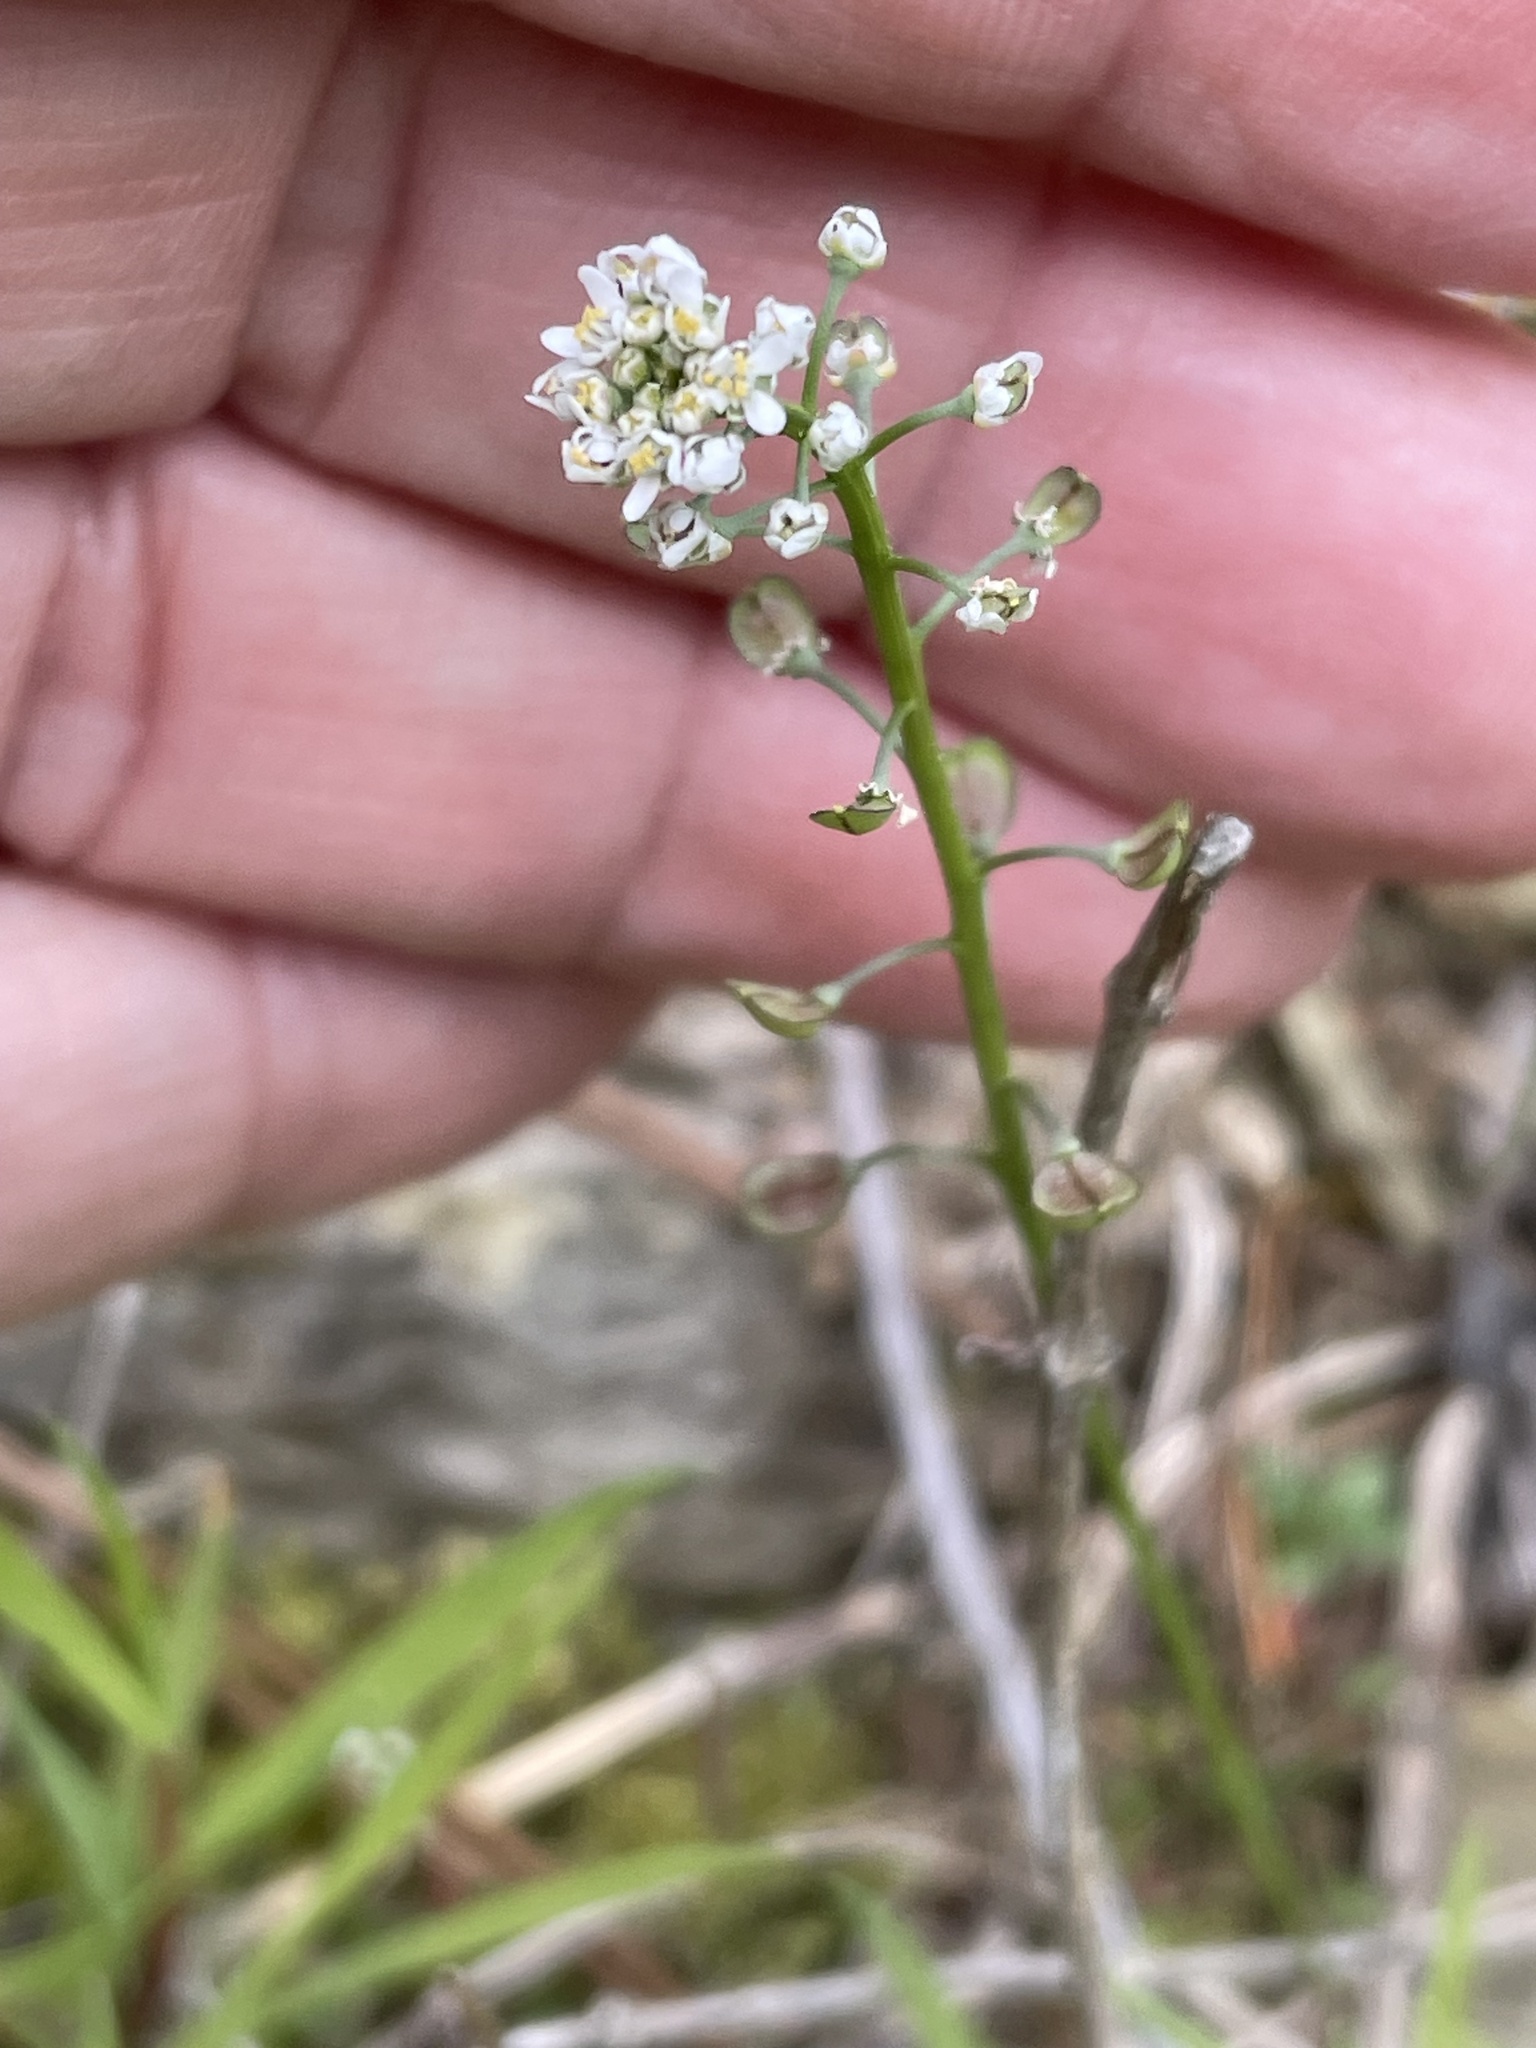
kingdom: Plantae
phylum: Tracheophyta
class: Magnoliopsida
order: Brassicales
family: Brassicaceae
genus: Teesdalia
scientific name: Teesdalia nudicaulis
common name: Shepherd's cress
